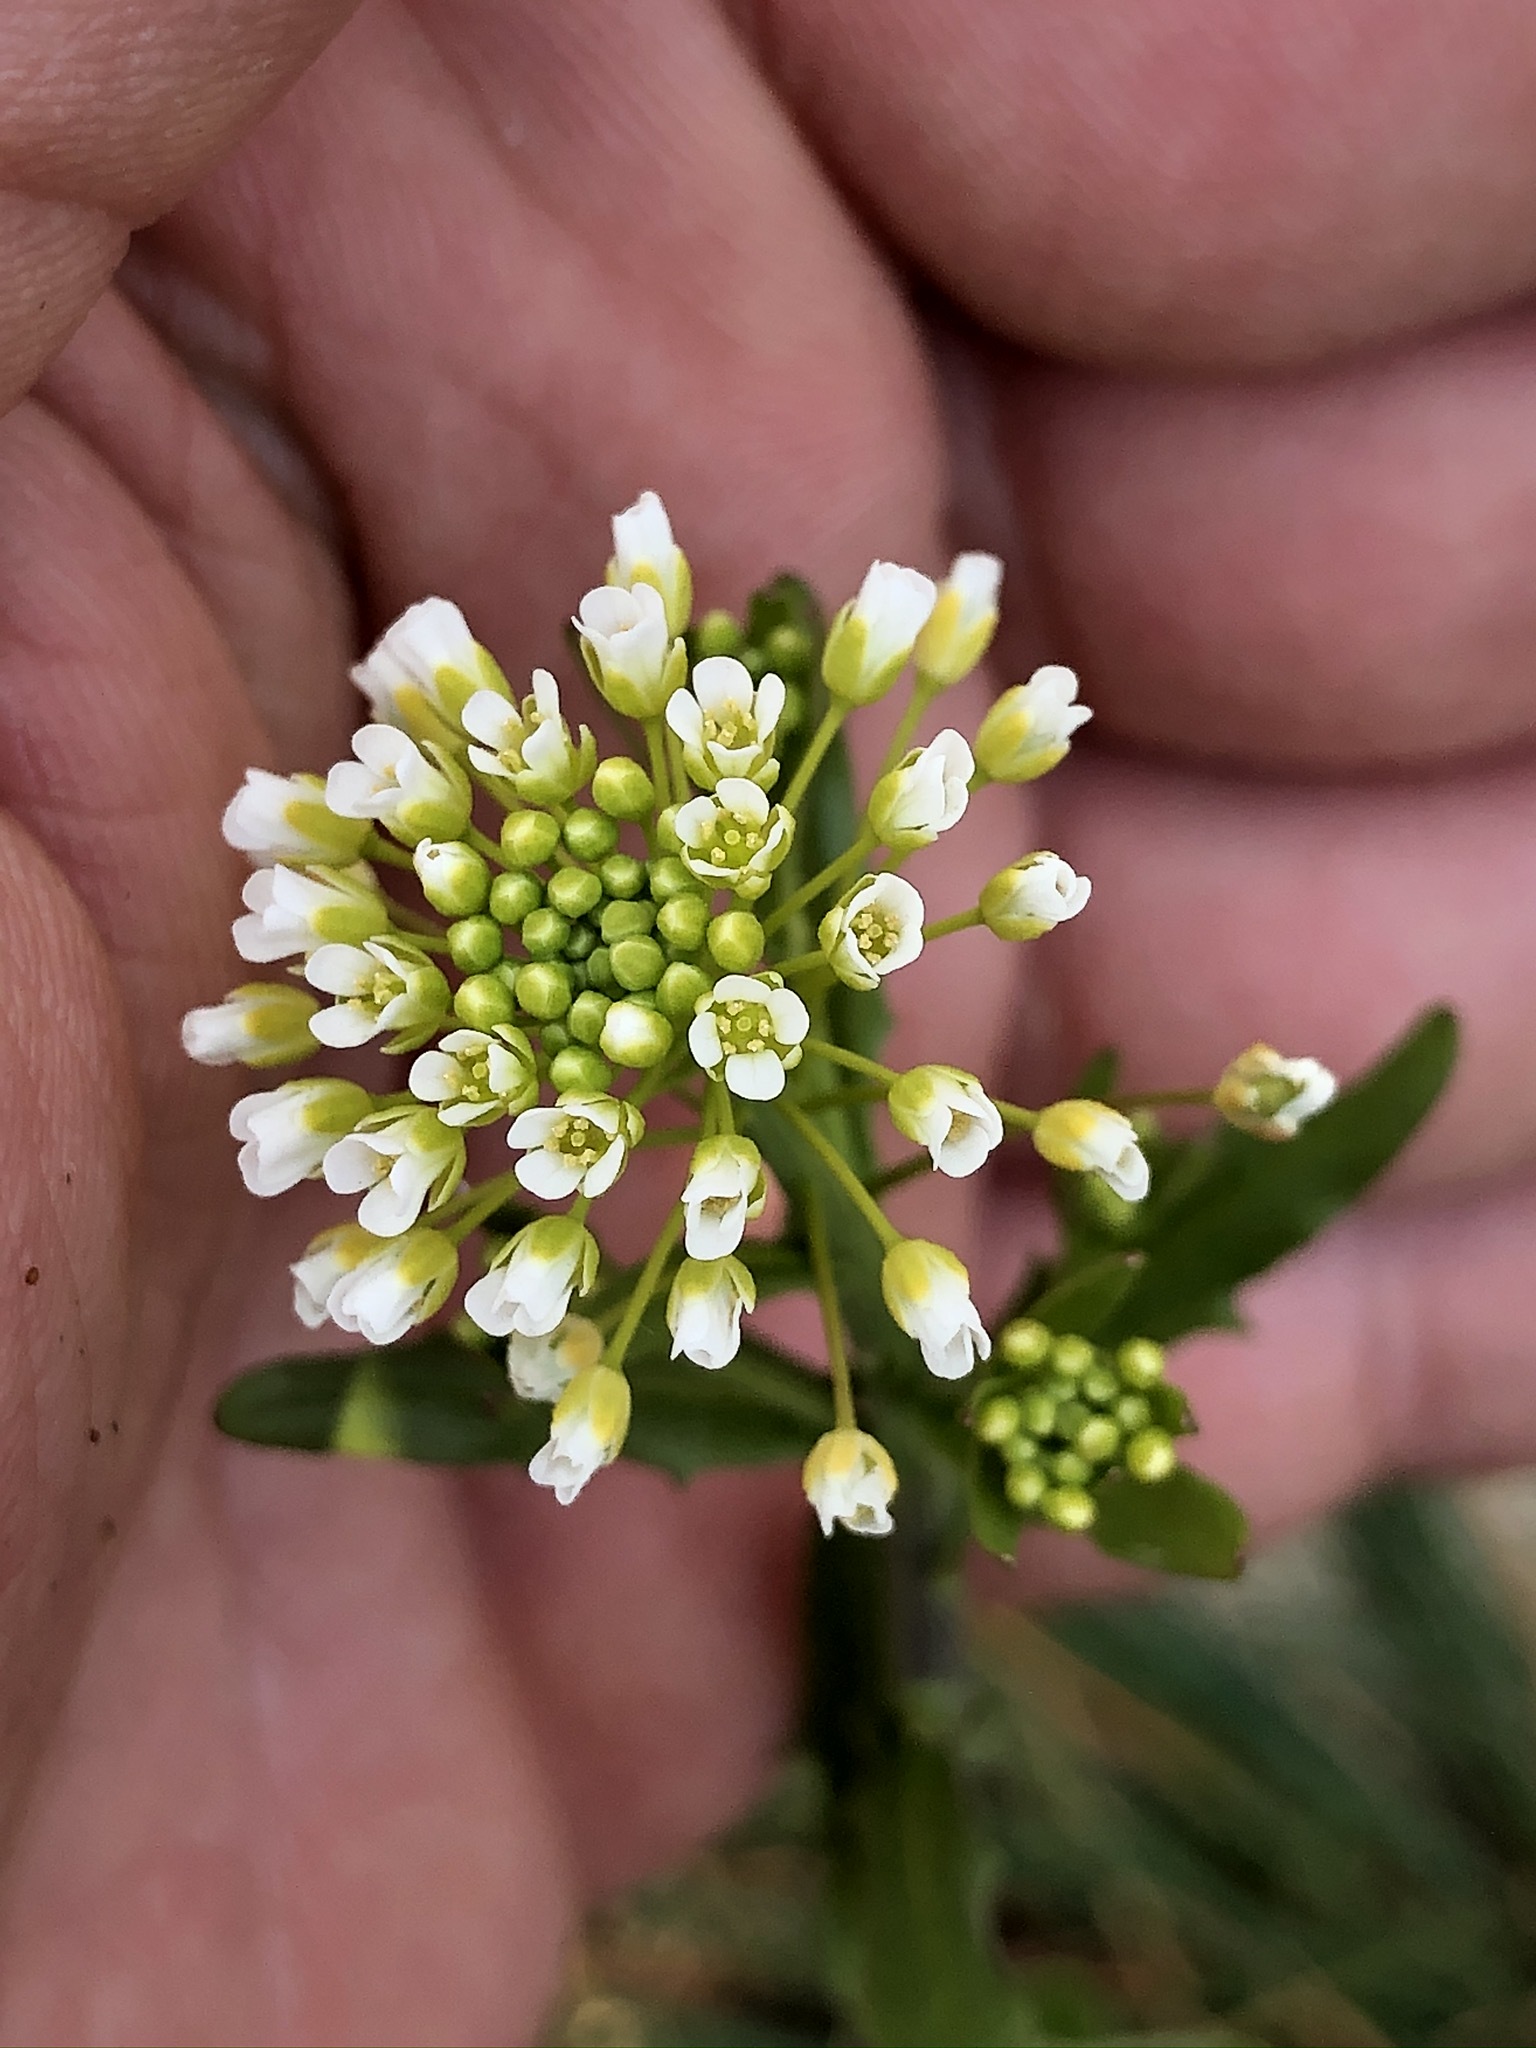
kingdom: Plantae
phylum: Tracheophyta
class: Magnoliopsida
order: Brassicales
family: Brassicaceae
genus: Mummenhoffia
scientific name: Mummenhoffia alliacea
